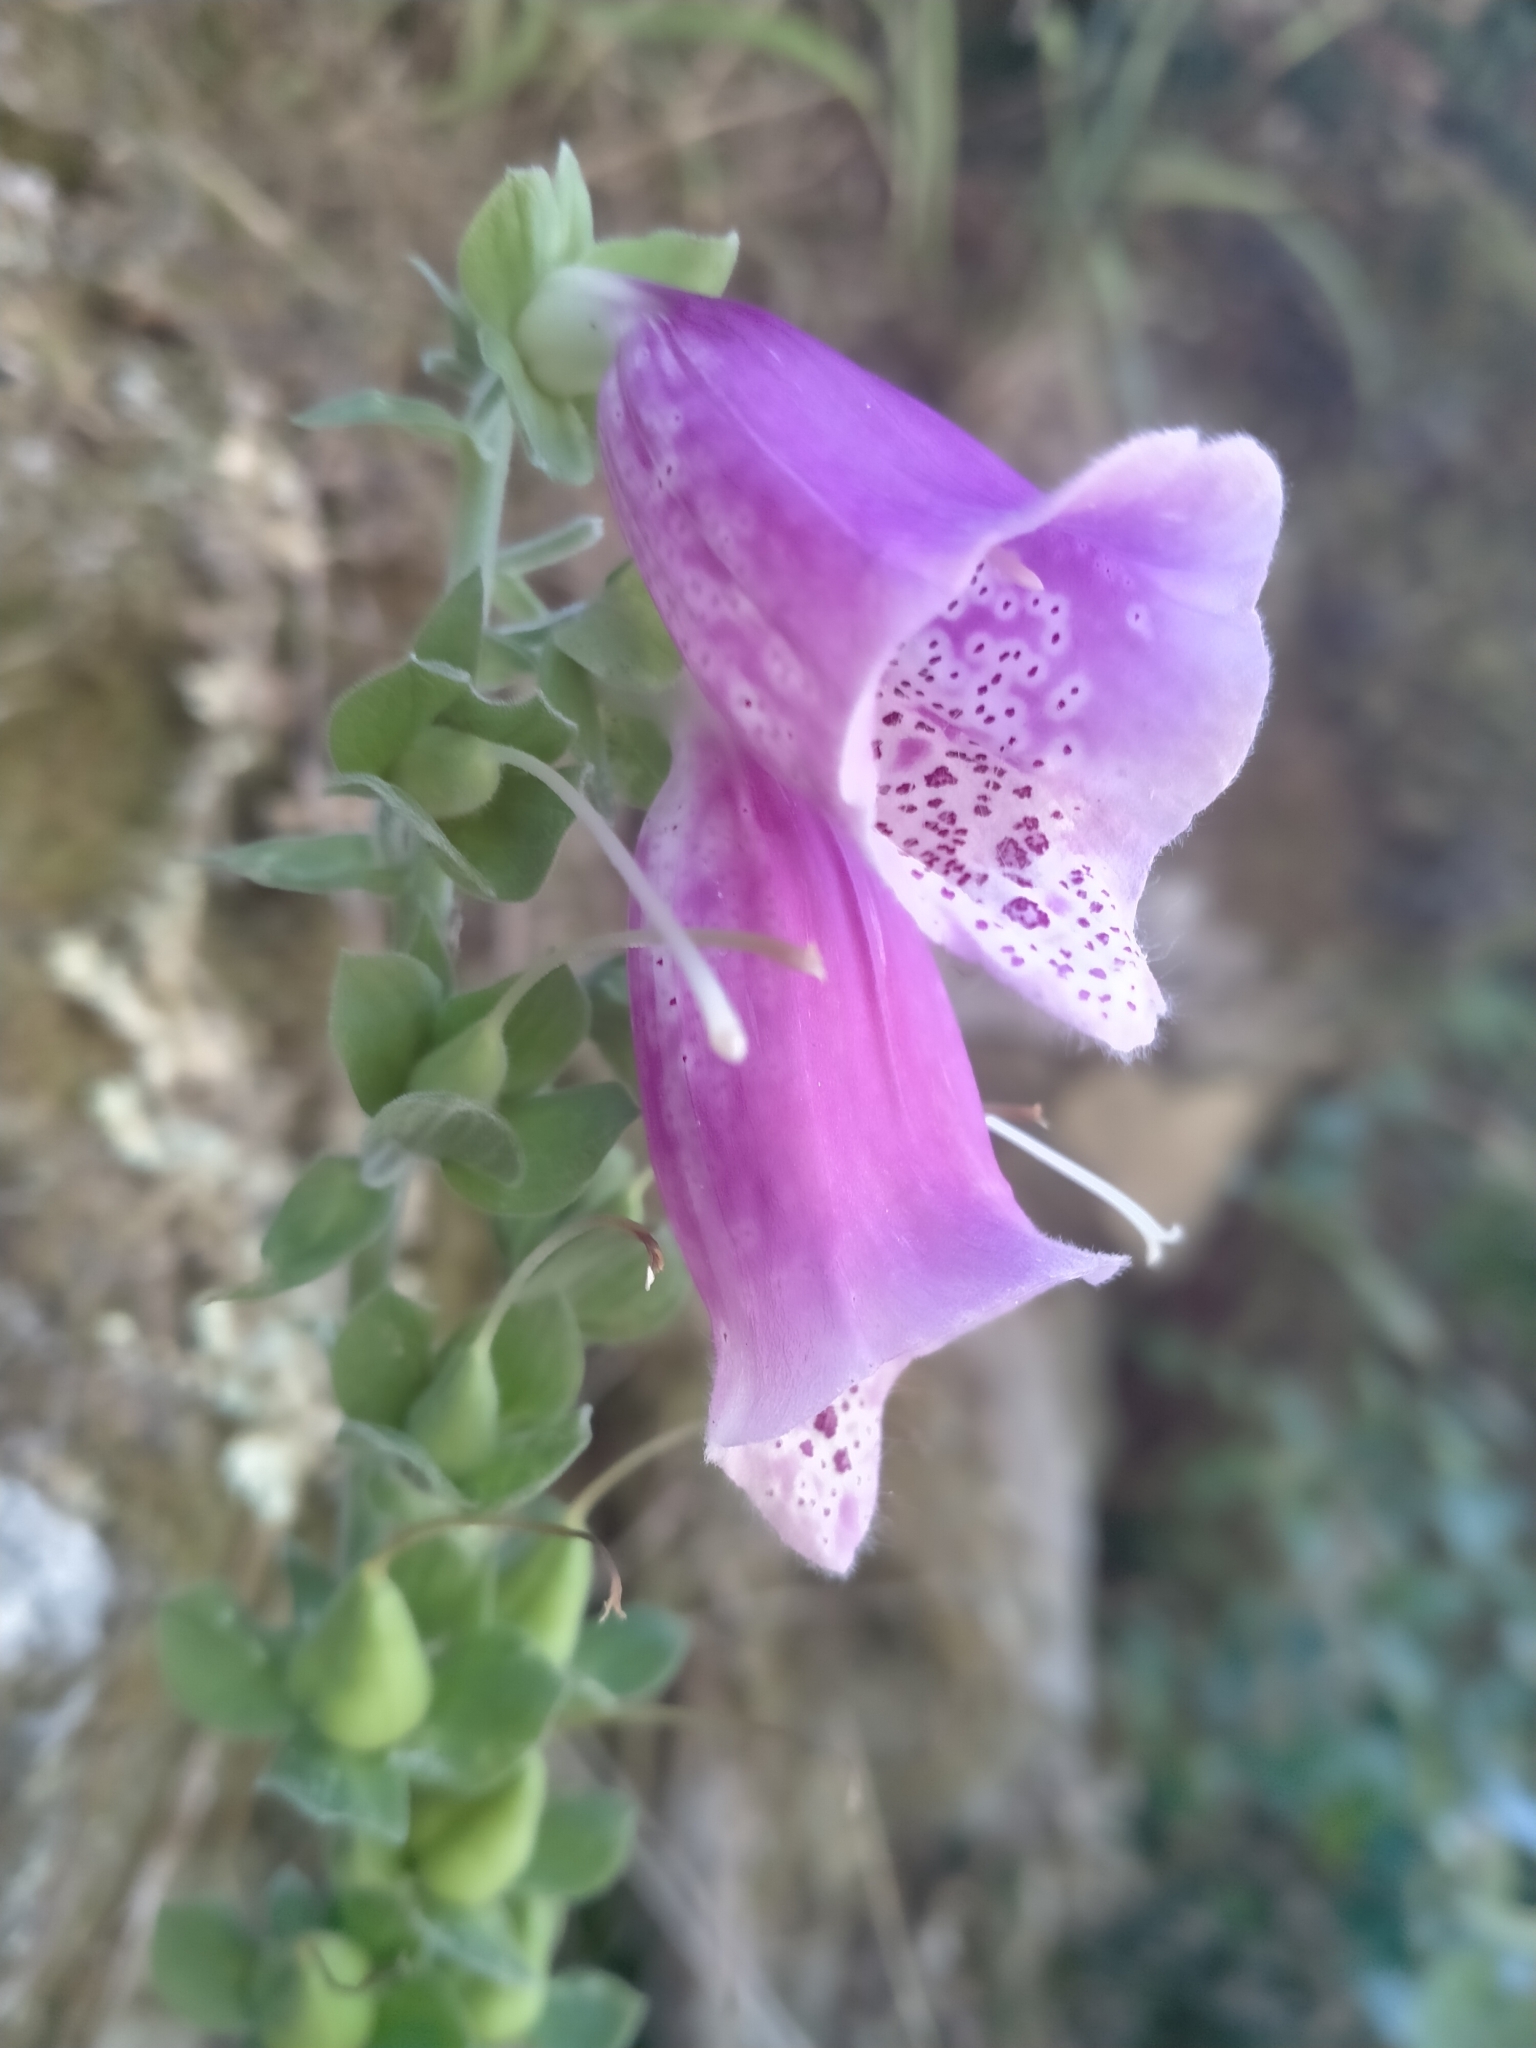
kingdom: Plantae
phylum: Tracheophyta
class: Magnoliopsida
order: Lamiales
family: Plantaginaceae
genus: Digitalis
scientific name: Digitalis purpurea
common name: Foxglove
